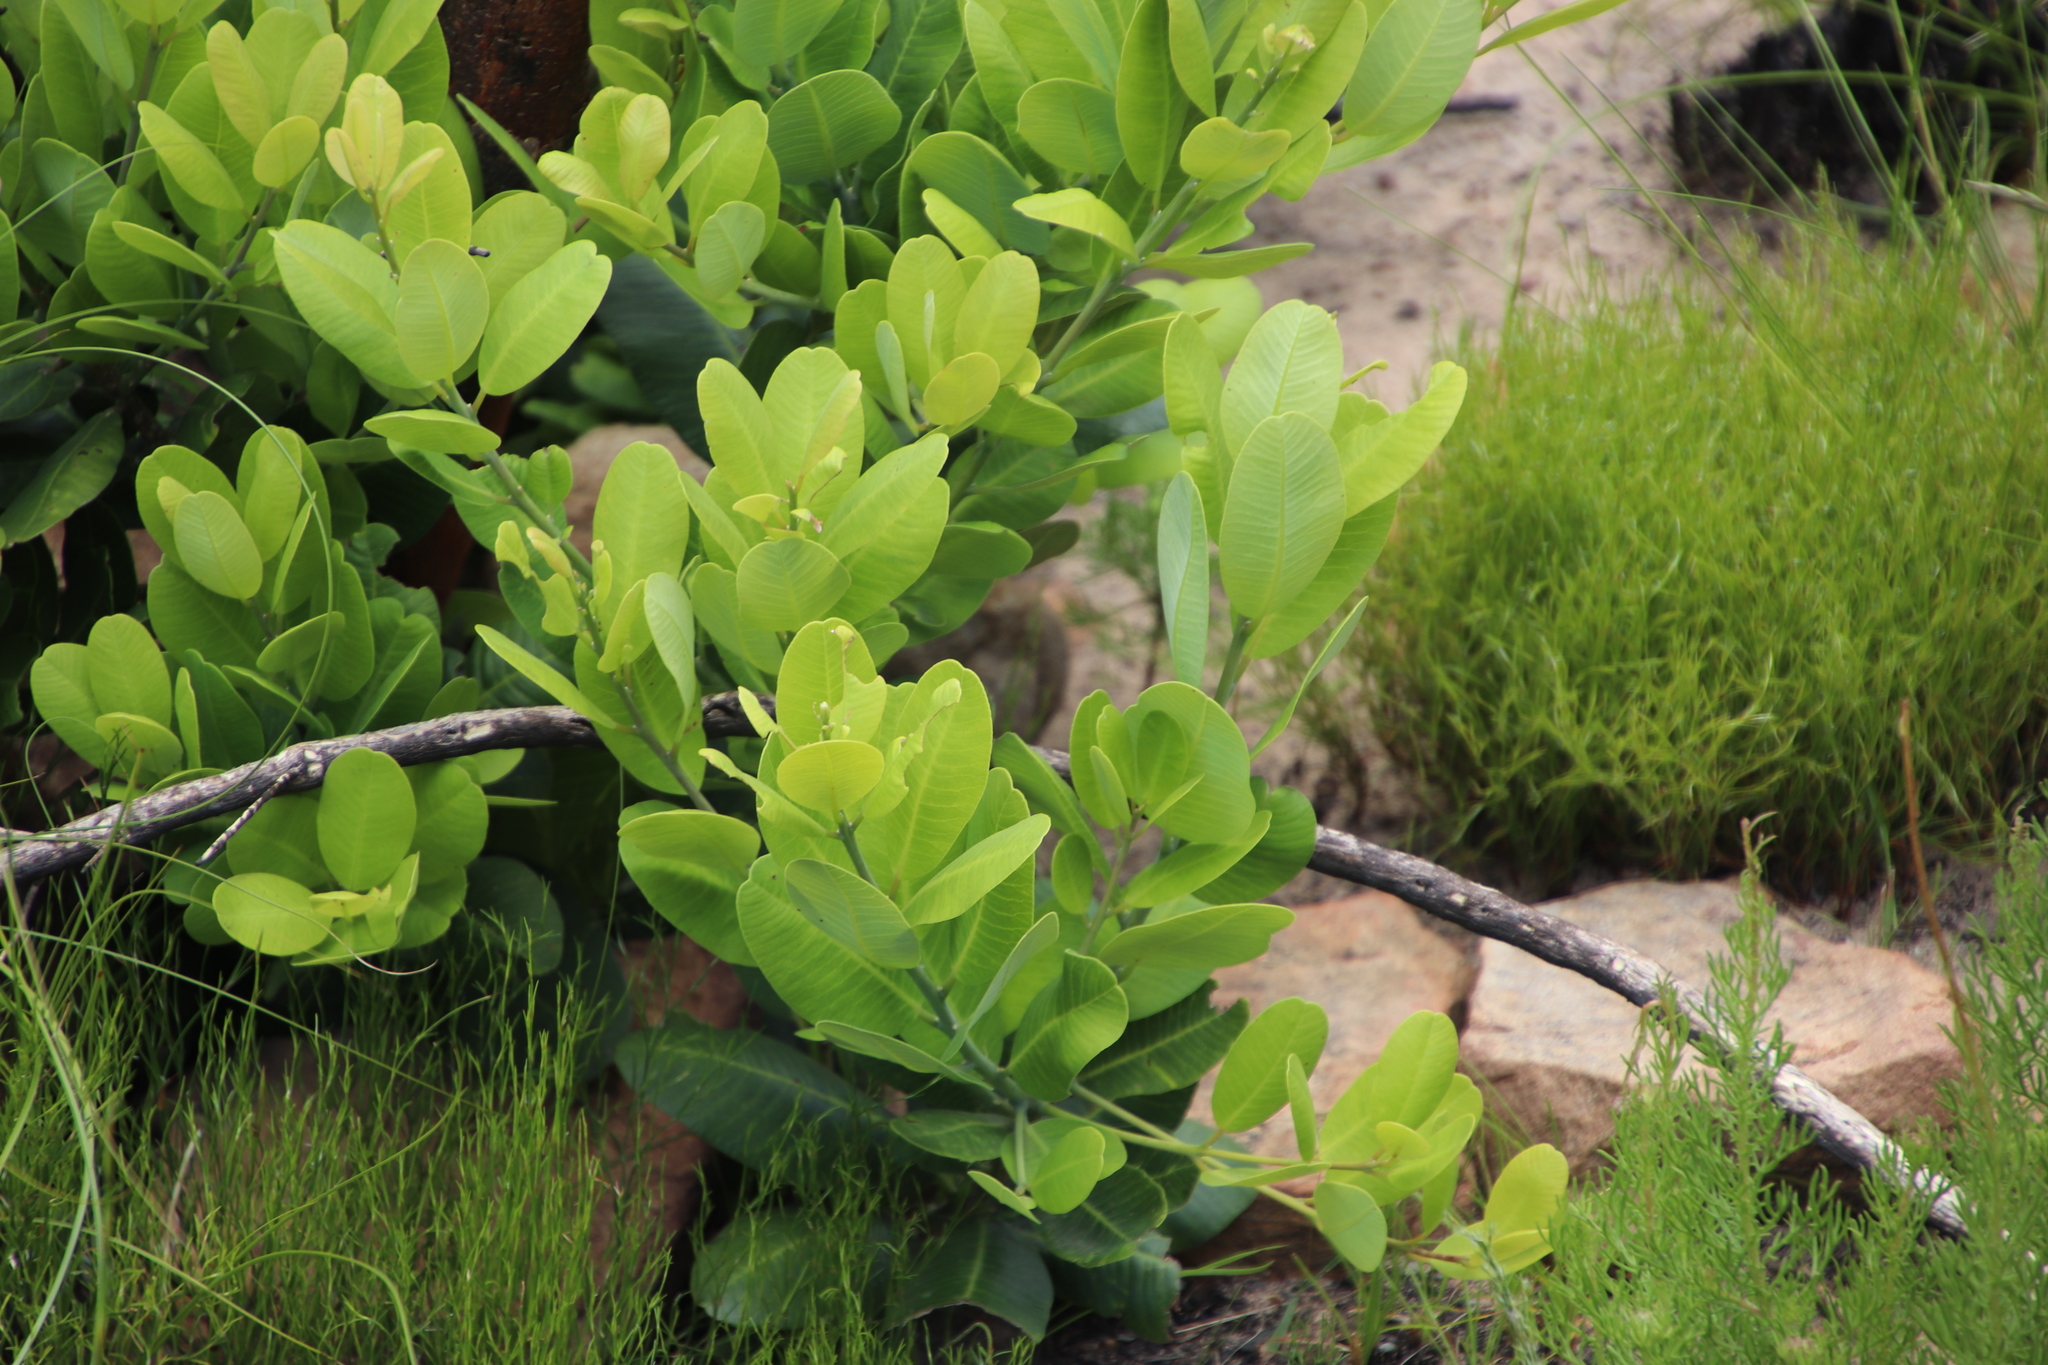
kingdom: Plantae
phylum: Tracheophyta
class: Magnoliopsida
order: Sapindales
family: Anacardiaceae
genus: Heeria
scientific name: Heeria argentea
